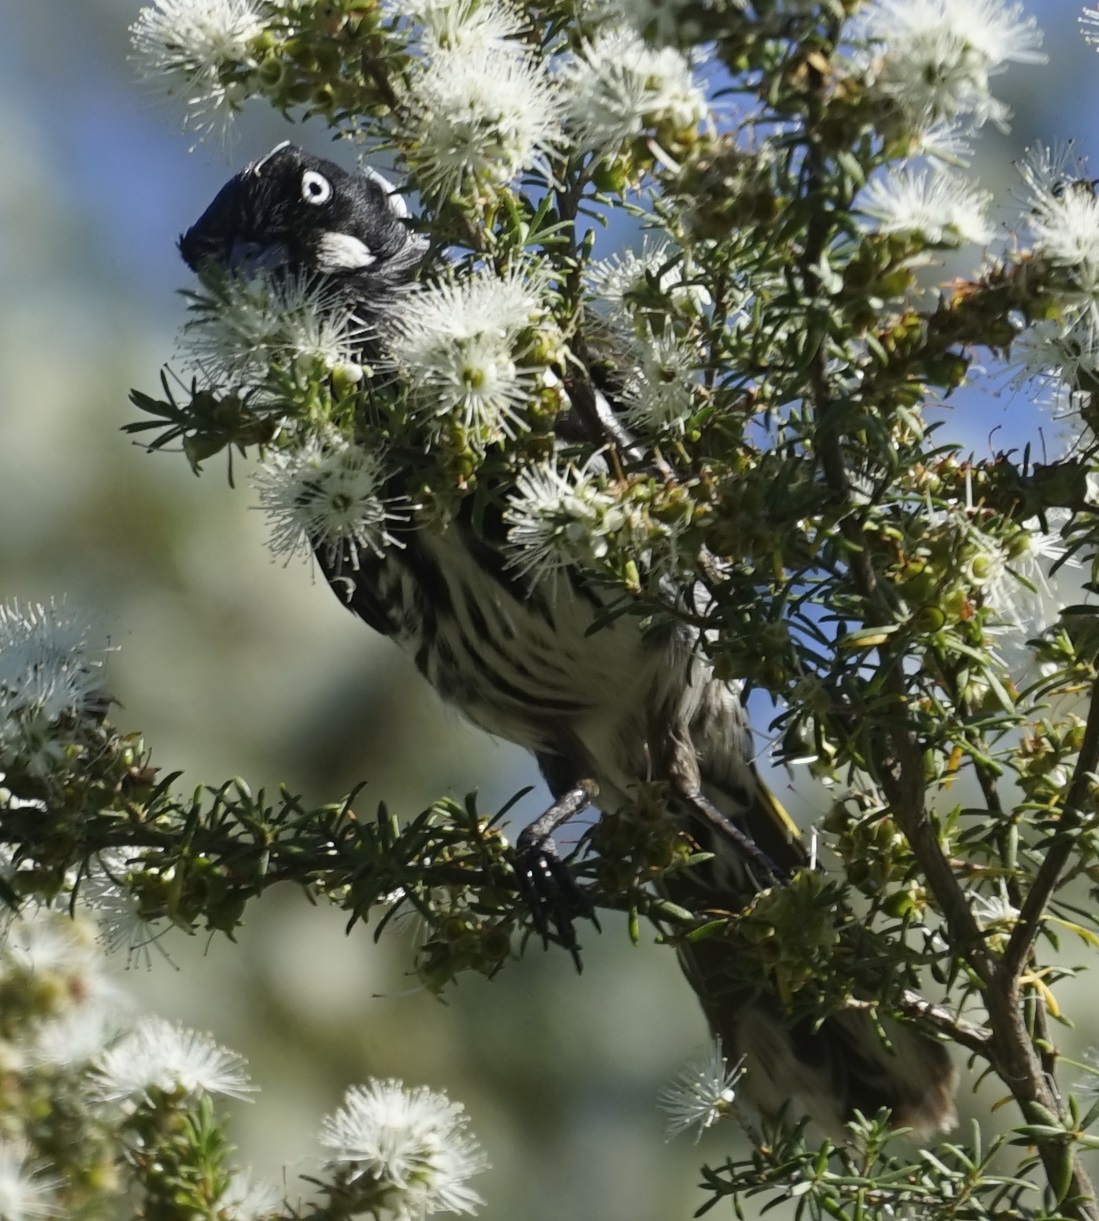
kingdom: Animalia
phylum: Chordata
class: Aves
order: Passeriformes
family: Meliphagidae
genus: Phylidonyris
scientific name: Phylidonyris novaehollandiae
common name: New holland honeyeater
